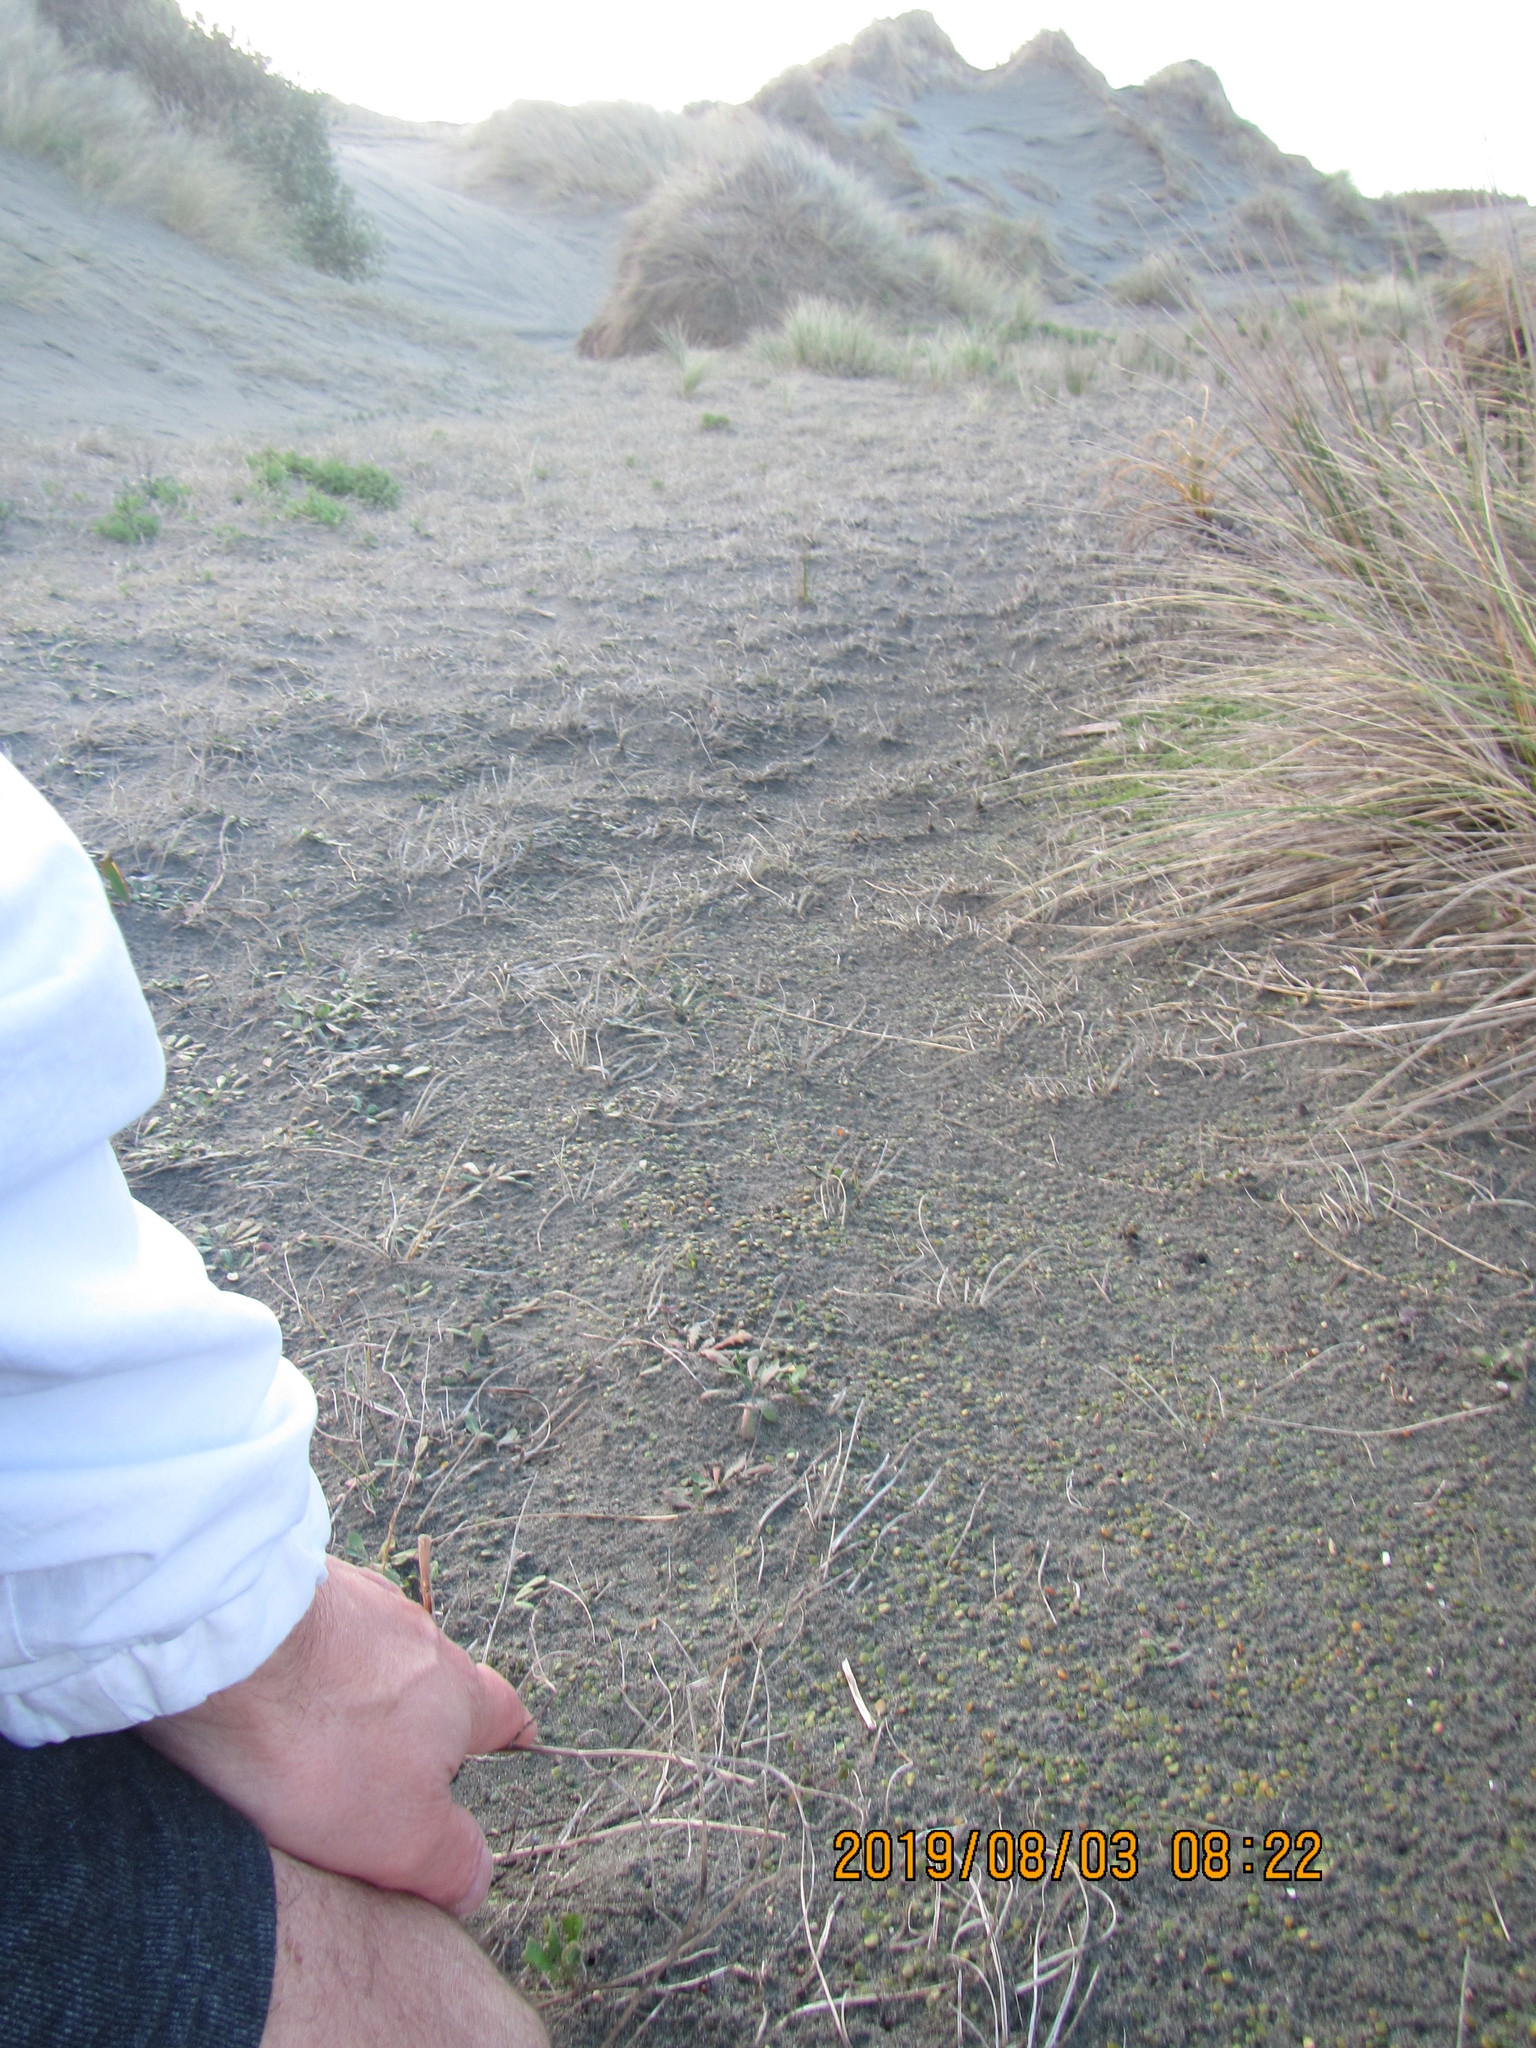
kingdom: Plantae
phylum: Tracheophyta
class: Magnoliopsida
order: Asterales
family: Goodeniaceae
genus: Goodenia
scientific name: Goodenia heenanii
